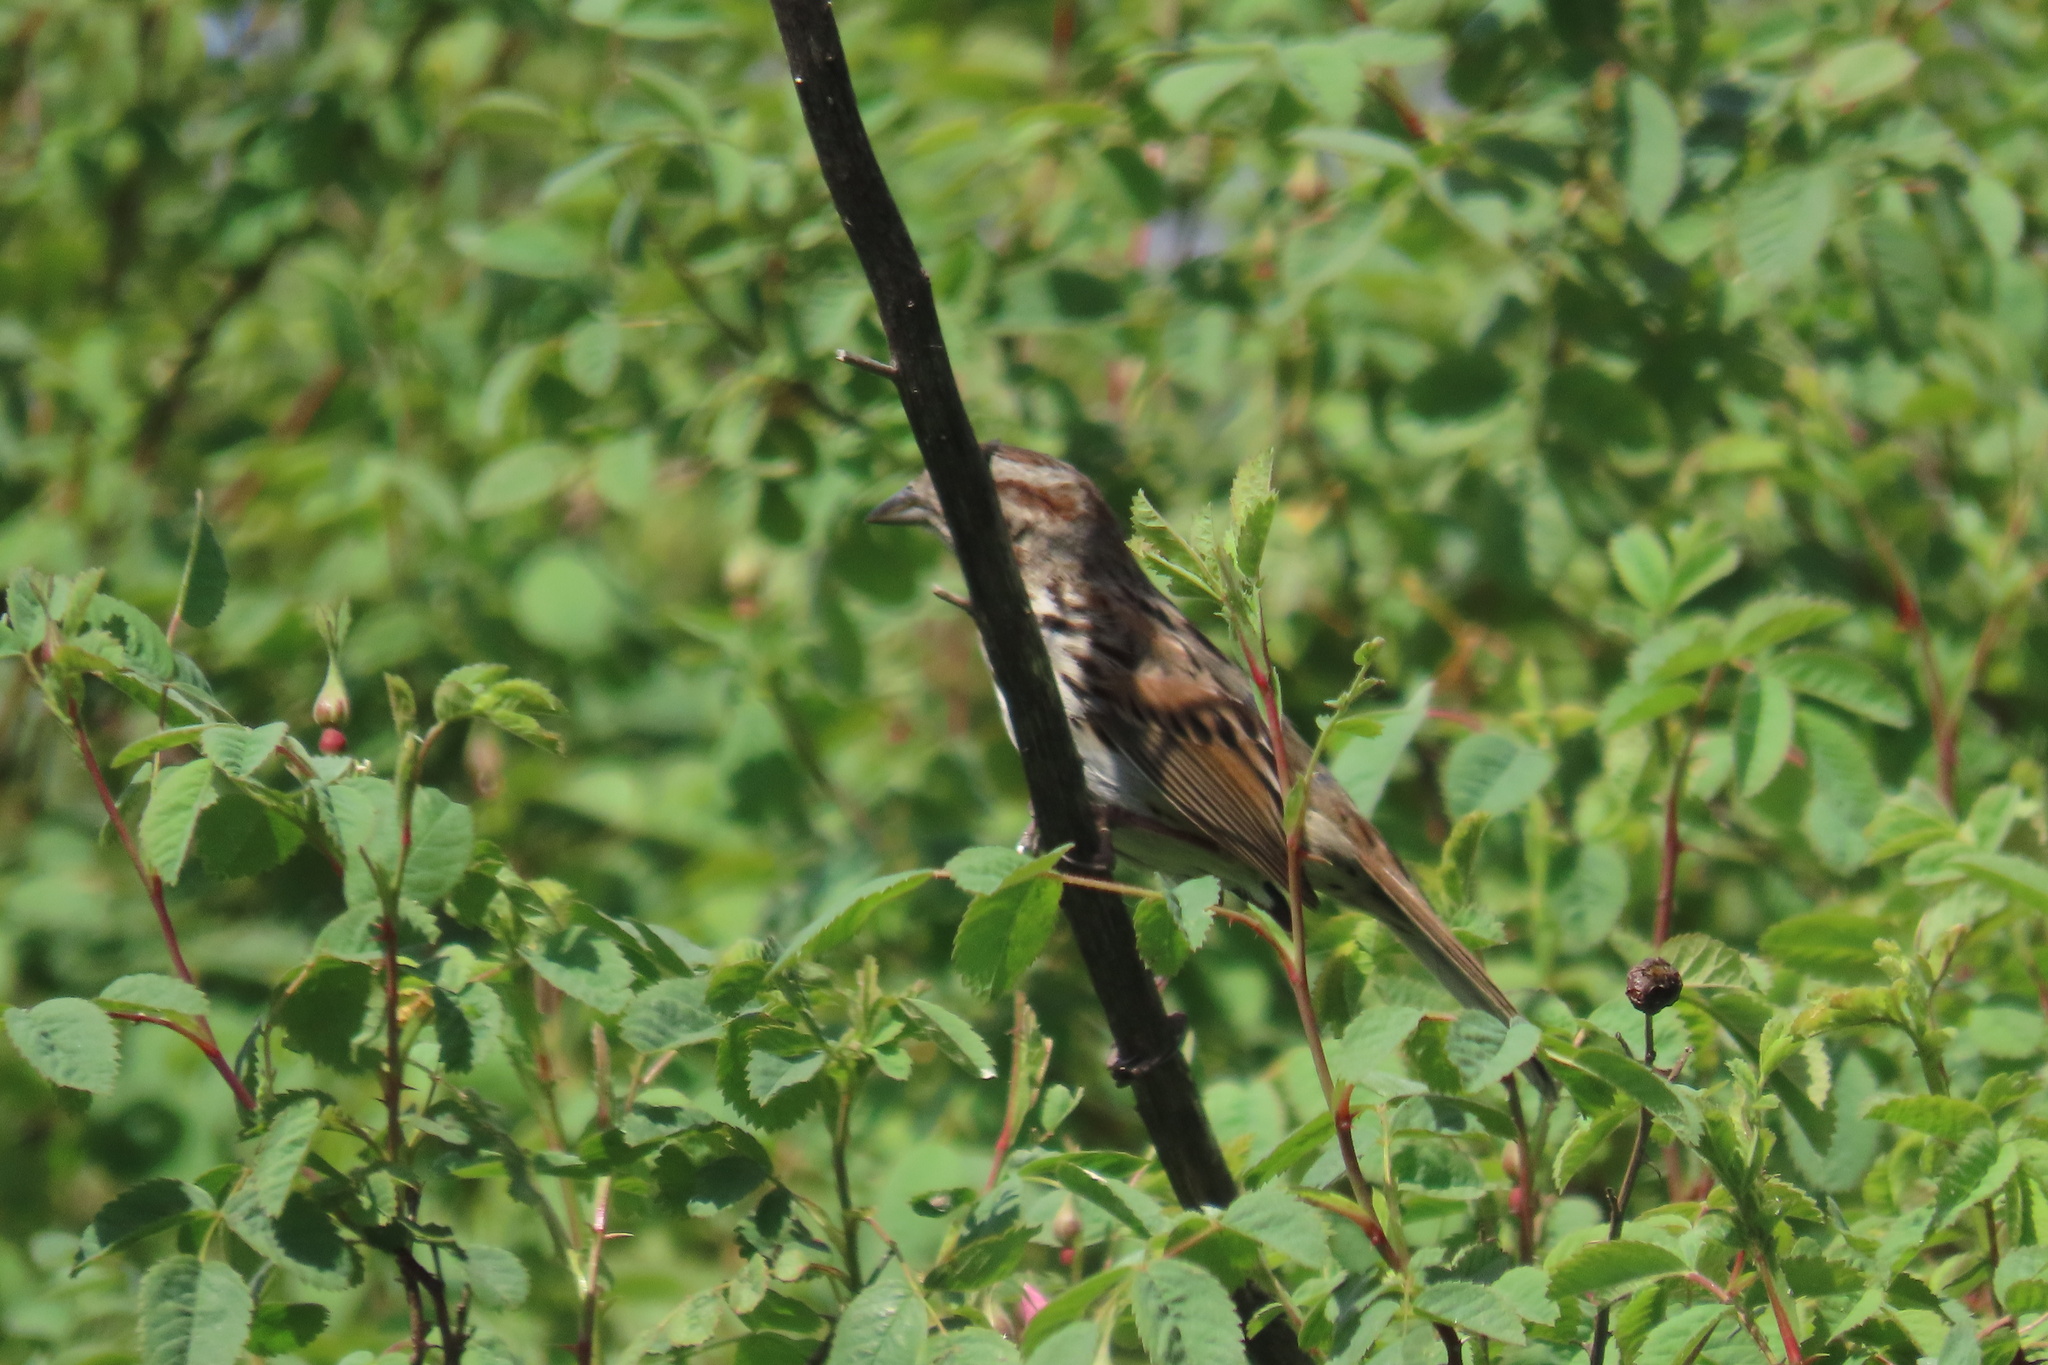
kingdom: Animalia
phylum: Chordata
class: Aves
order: Passeriformes
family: Passerellidae
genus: Melospiza
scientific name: Melospiza melodia
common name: Song sparrow
